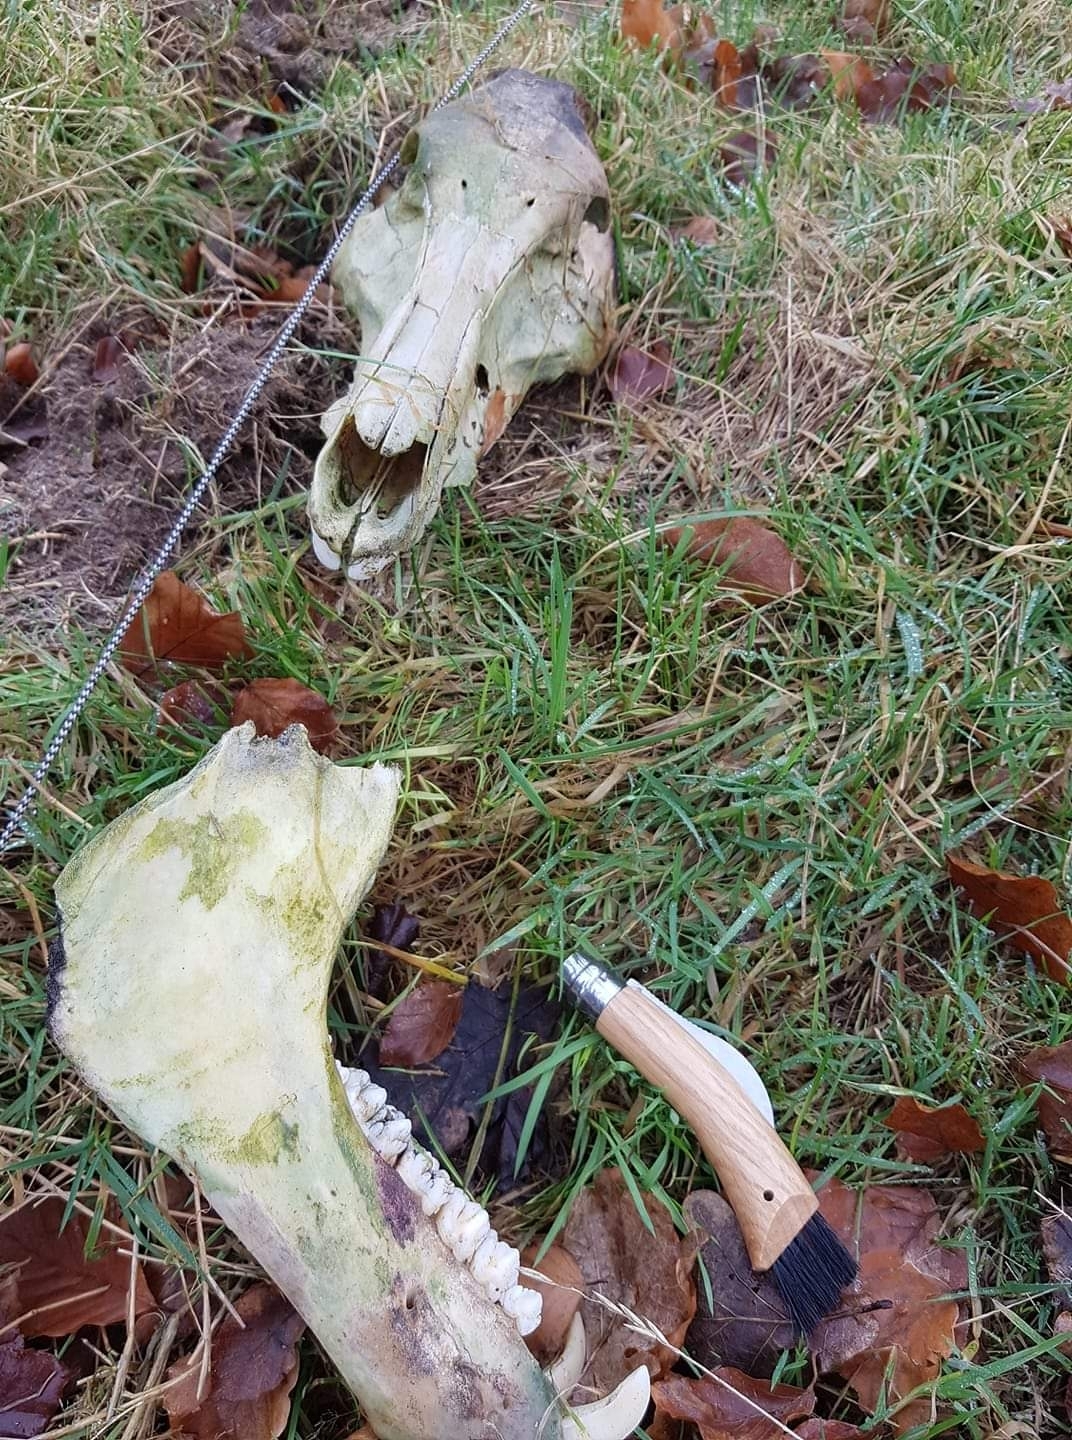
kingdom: Animalia
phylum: Chordata
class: Mammalia
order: Artiodactyla
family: Suidae
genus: Sus
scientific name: Sus scrofa
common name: Wild boar
